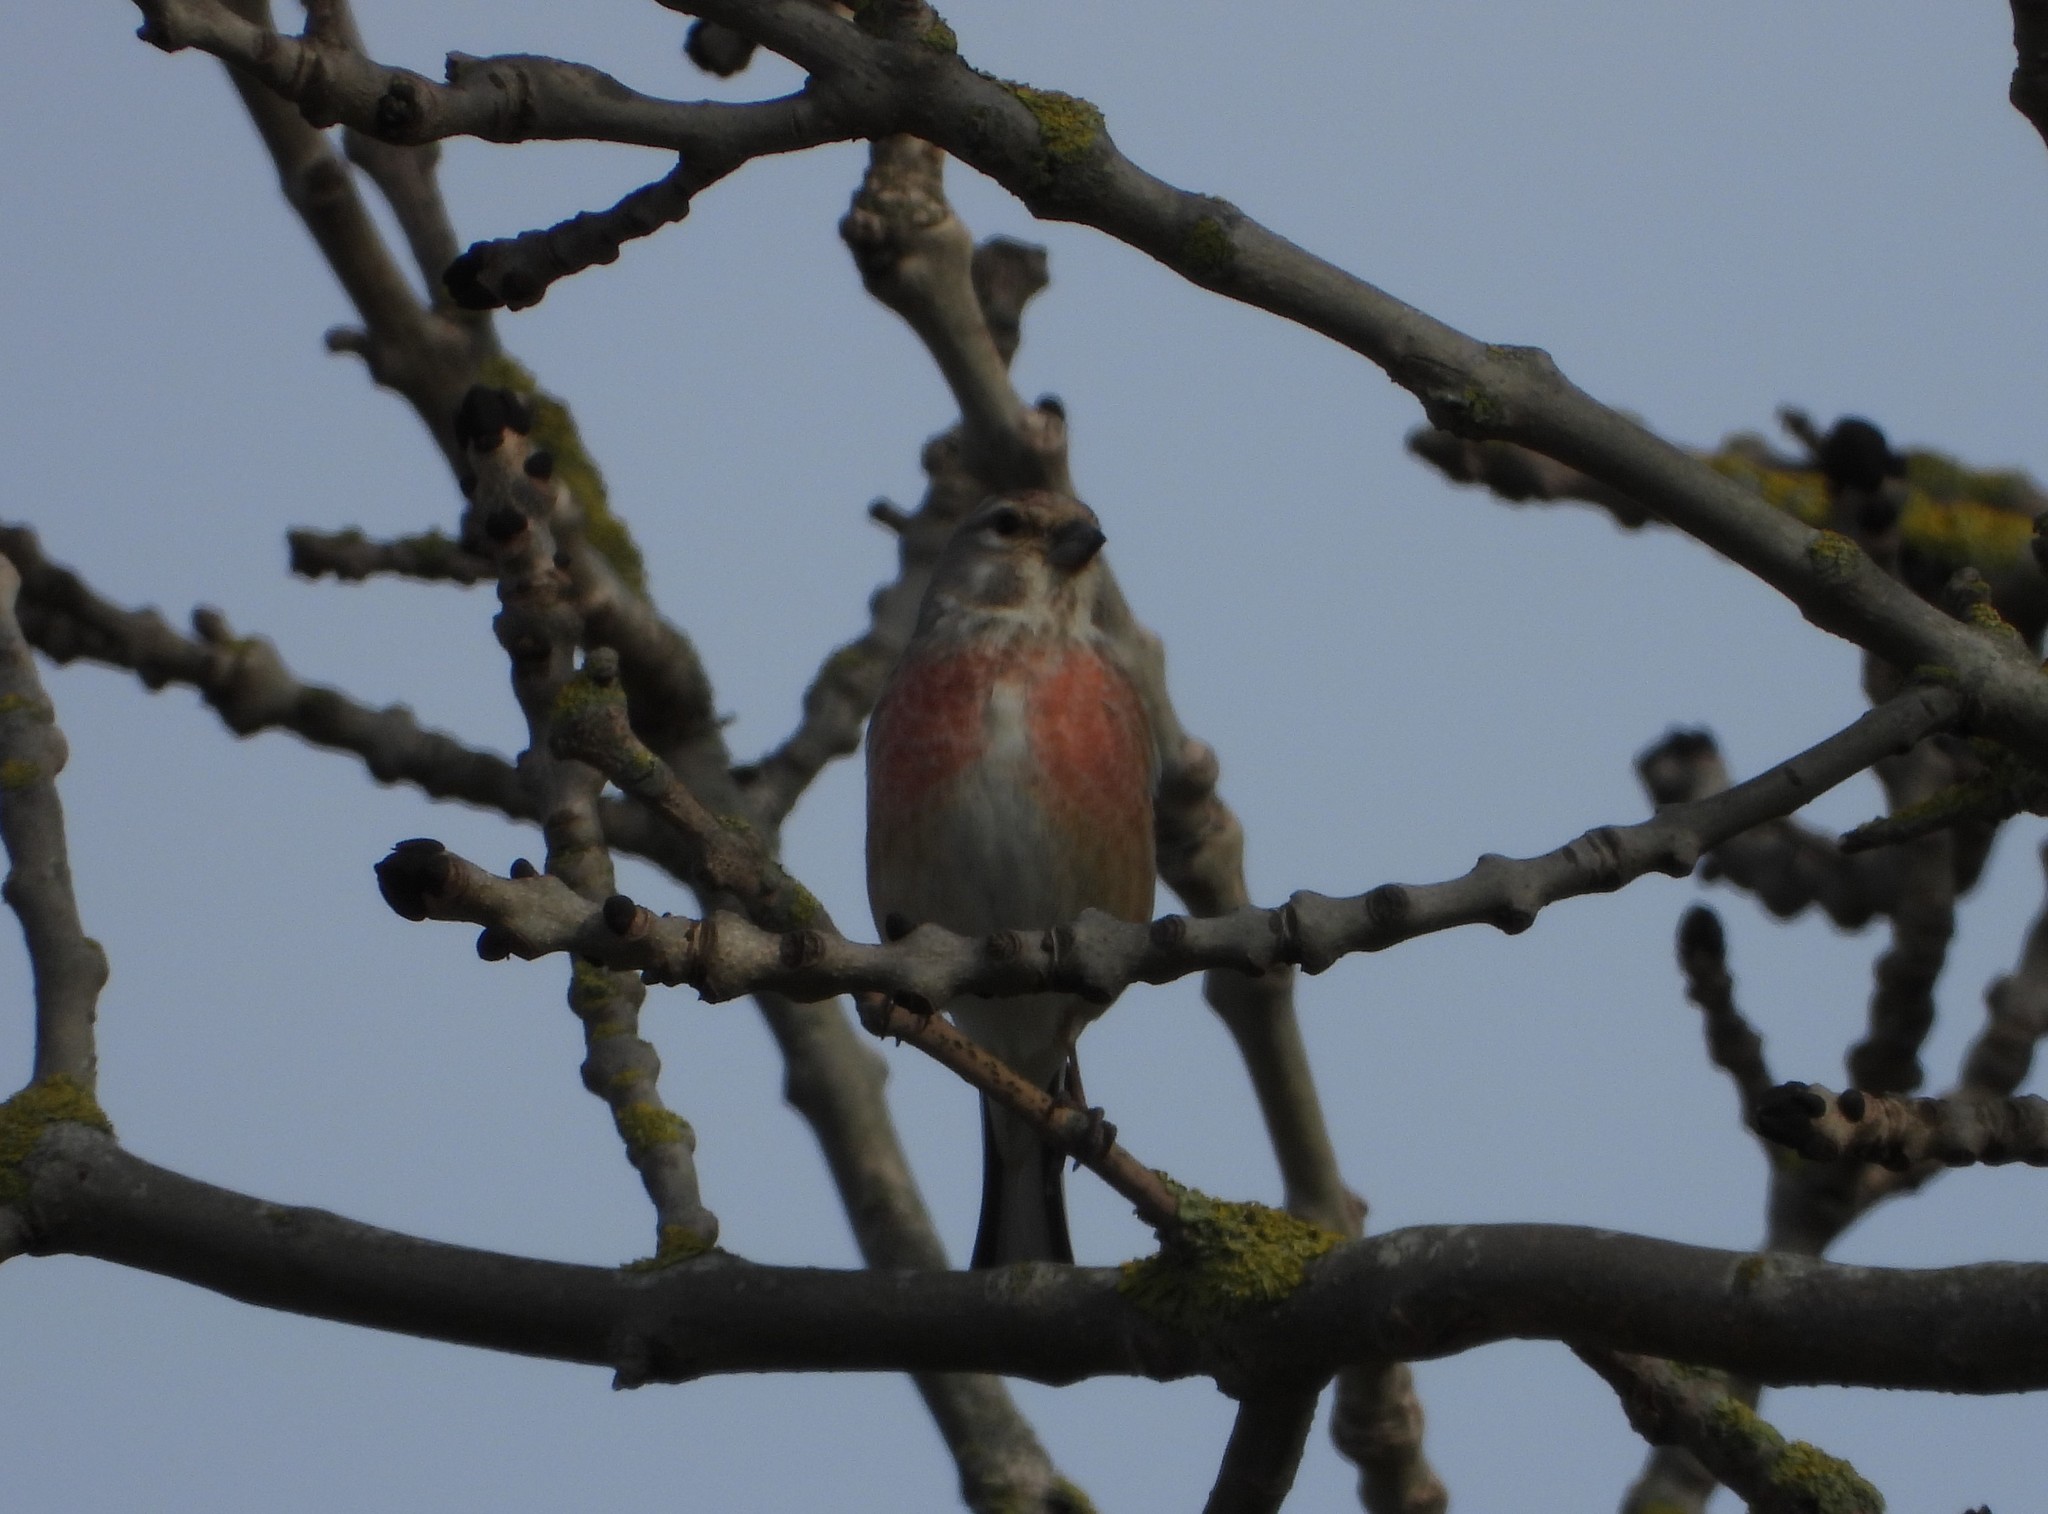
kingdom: Animalia
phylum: Chordata
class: Aves
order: Passeriformes
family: Fringillidae
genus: Linaria
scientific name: Linaria cannabina
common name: Common linnet
